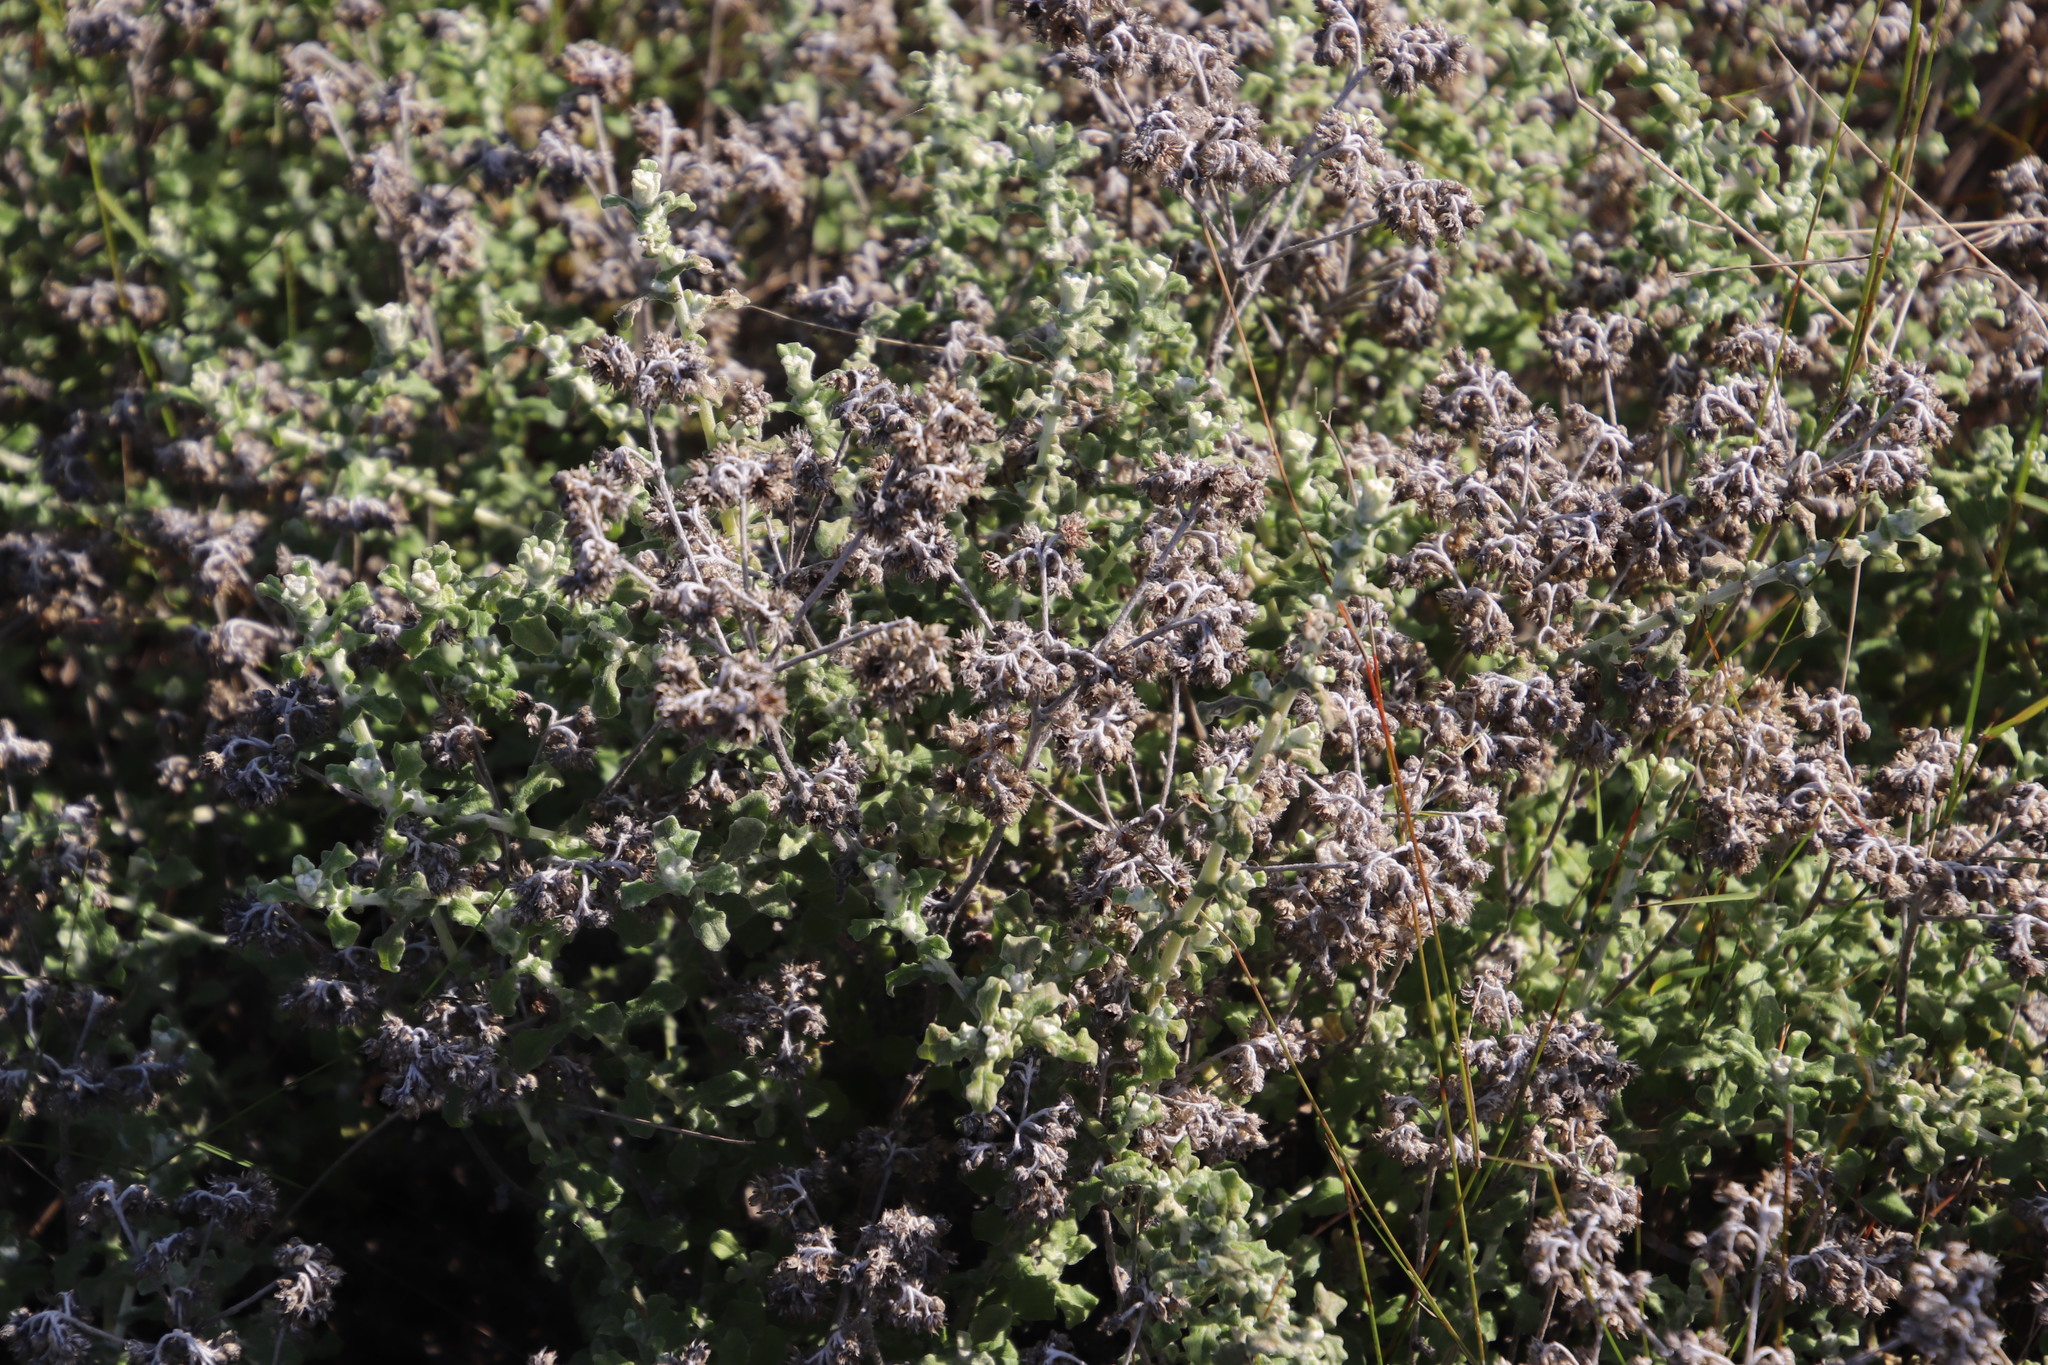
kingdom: Plantae
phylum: Tracheophyta
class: Magnoliopsida
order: Asterales
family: Asteraceae
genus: Helichrysum
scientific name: Helichrysum pandurifolium
